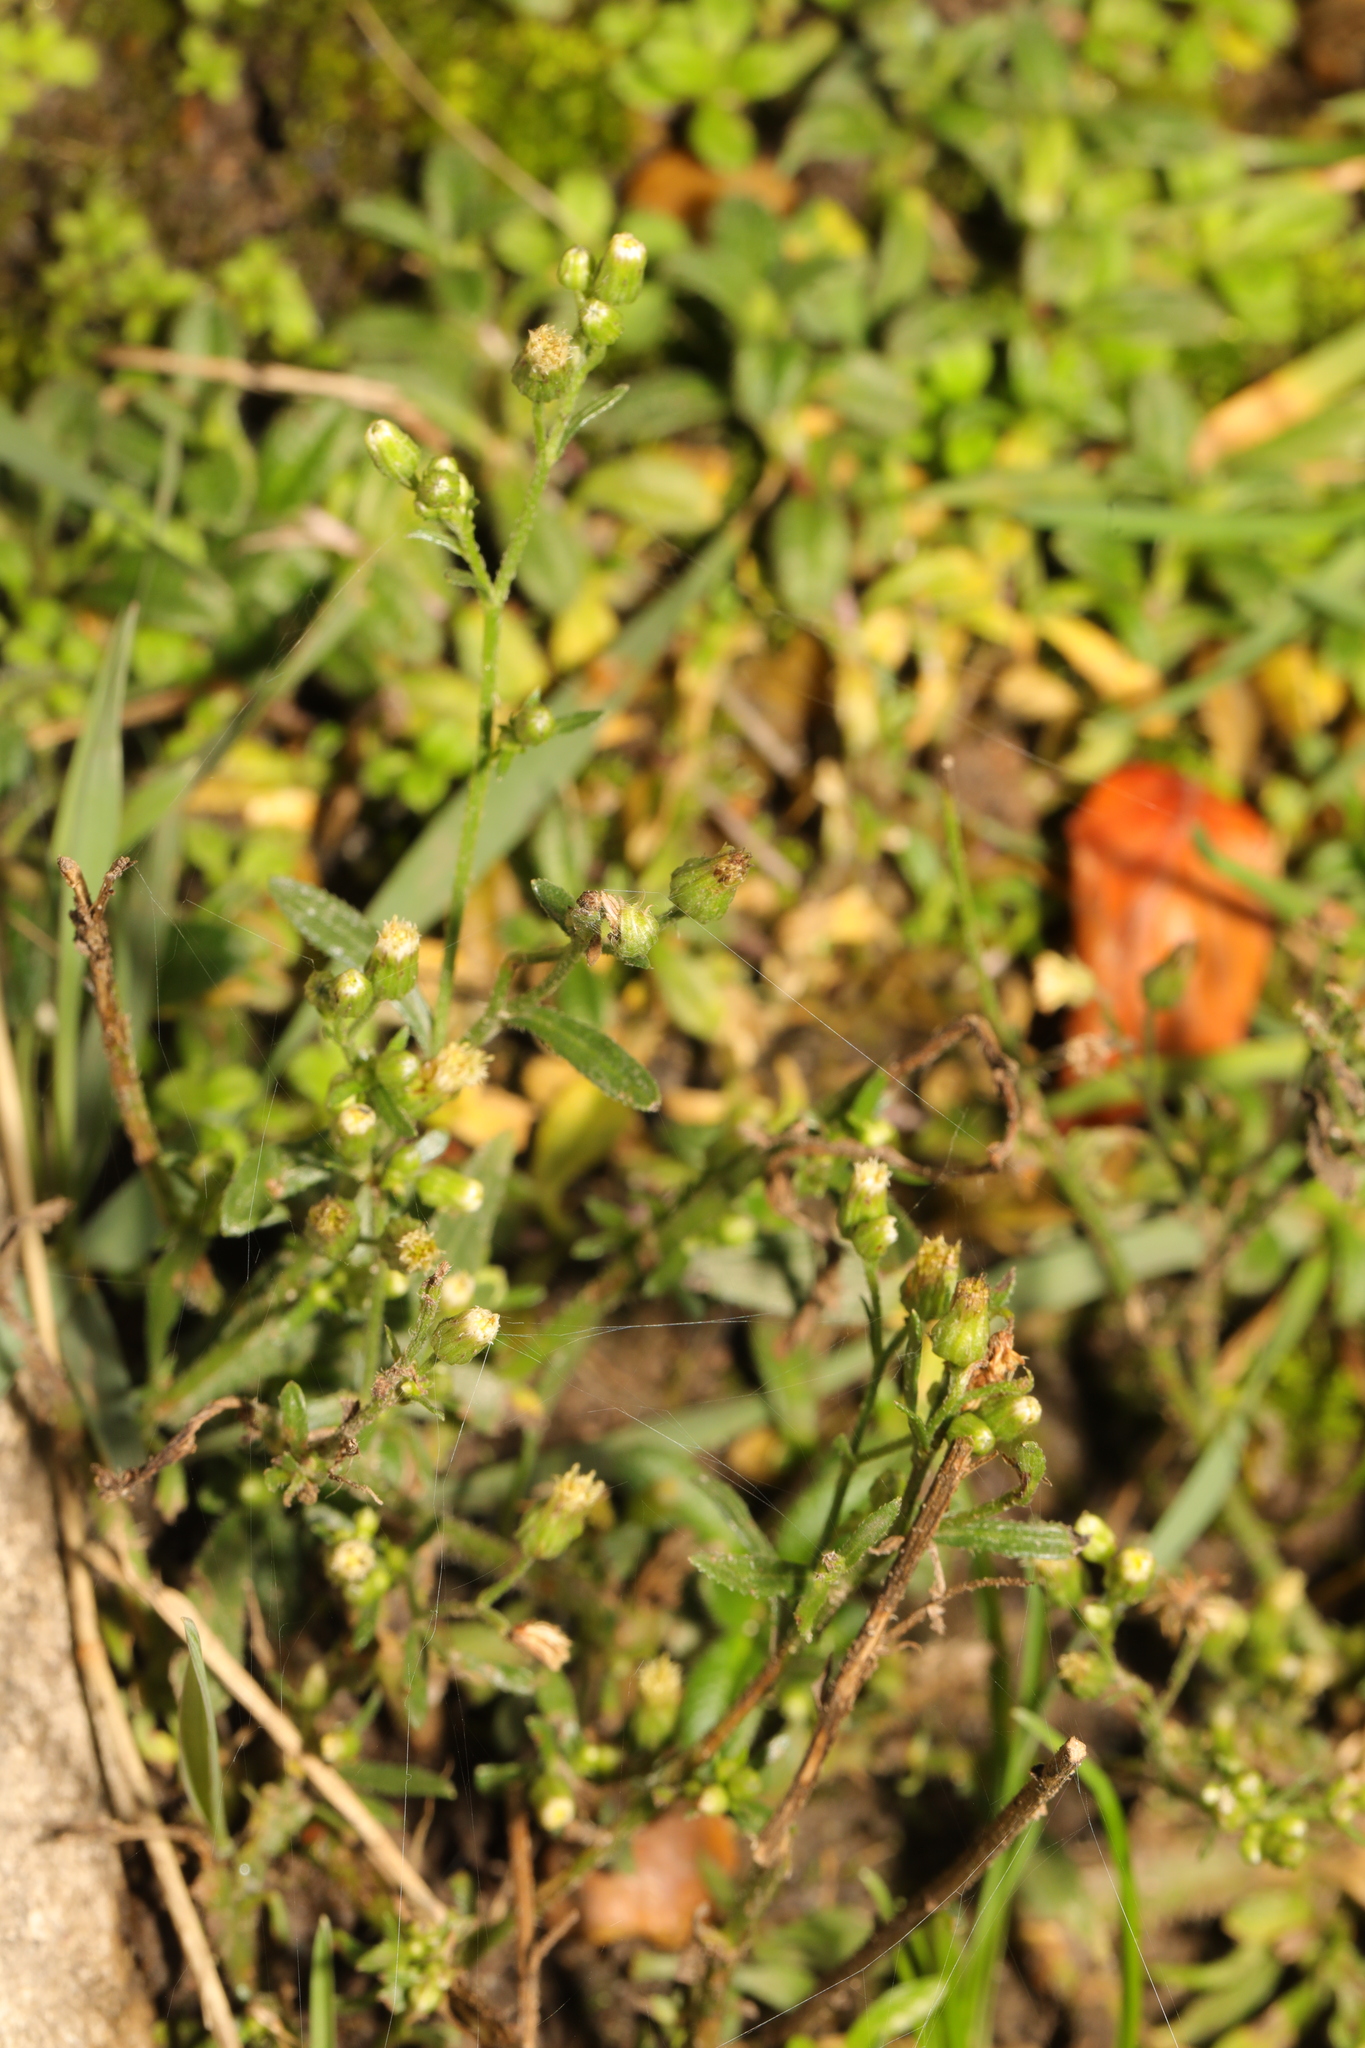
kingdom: Plantae
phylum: Tracheophyta
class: Magnoliopsida
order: Asterales
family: Asteraceae
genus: Erigeron
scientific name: Erigeron canadensis
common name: Canadian fleabane
